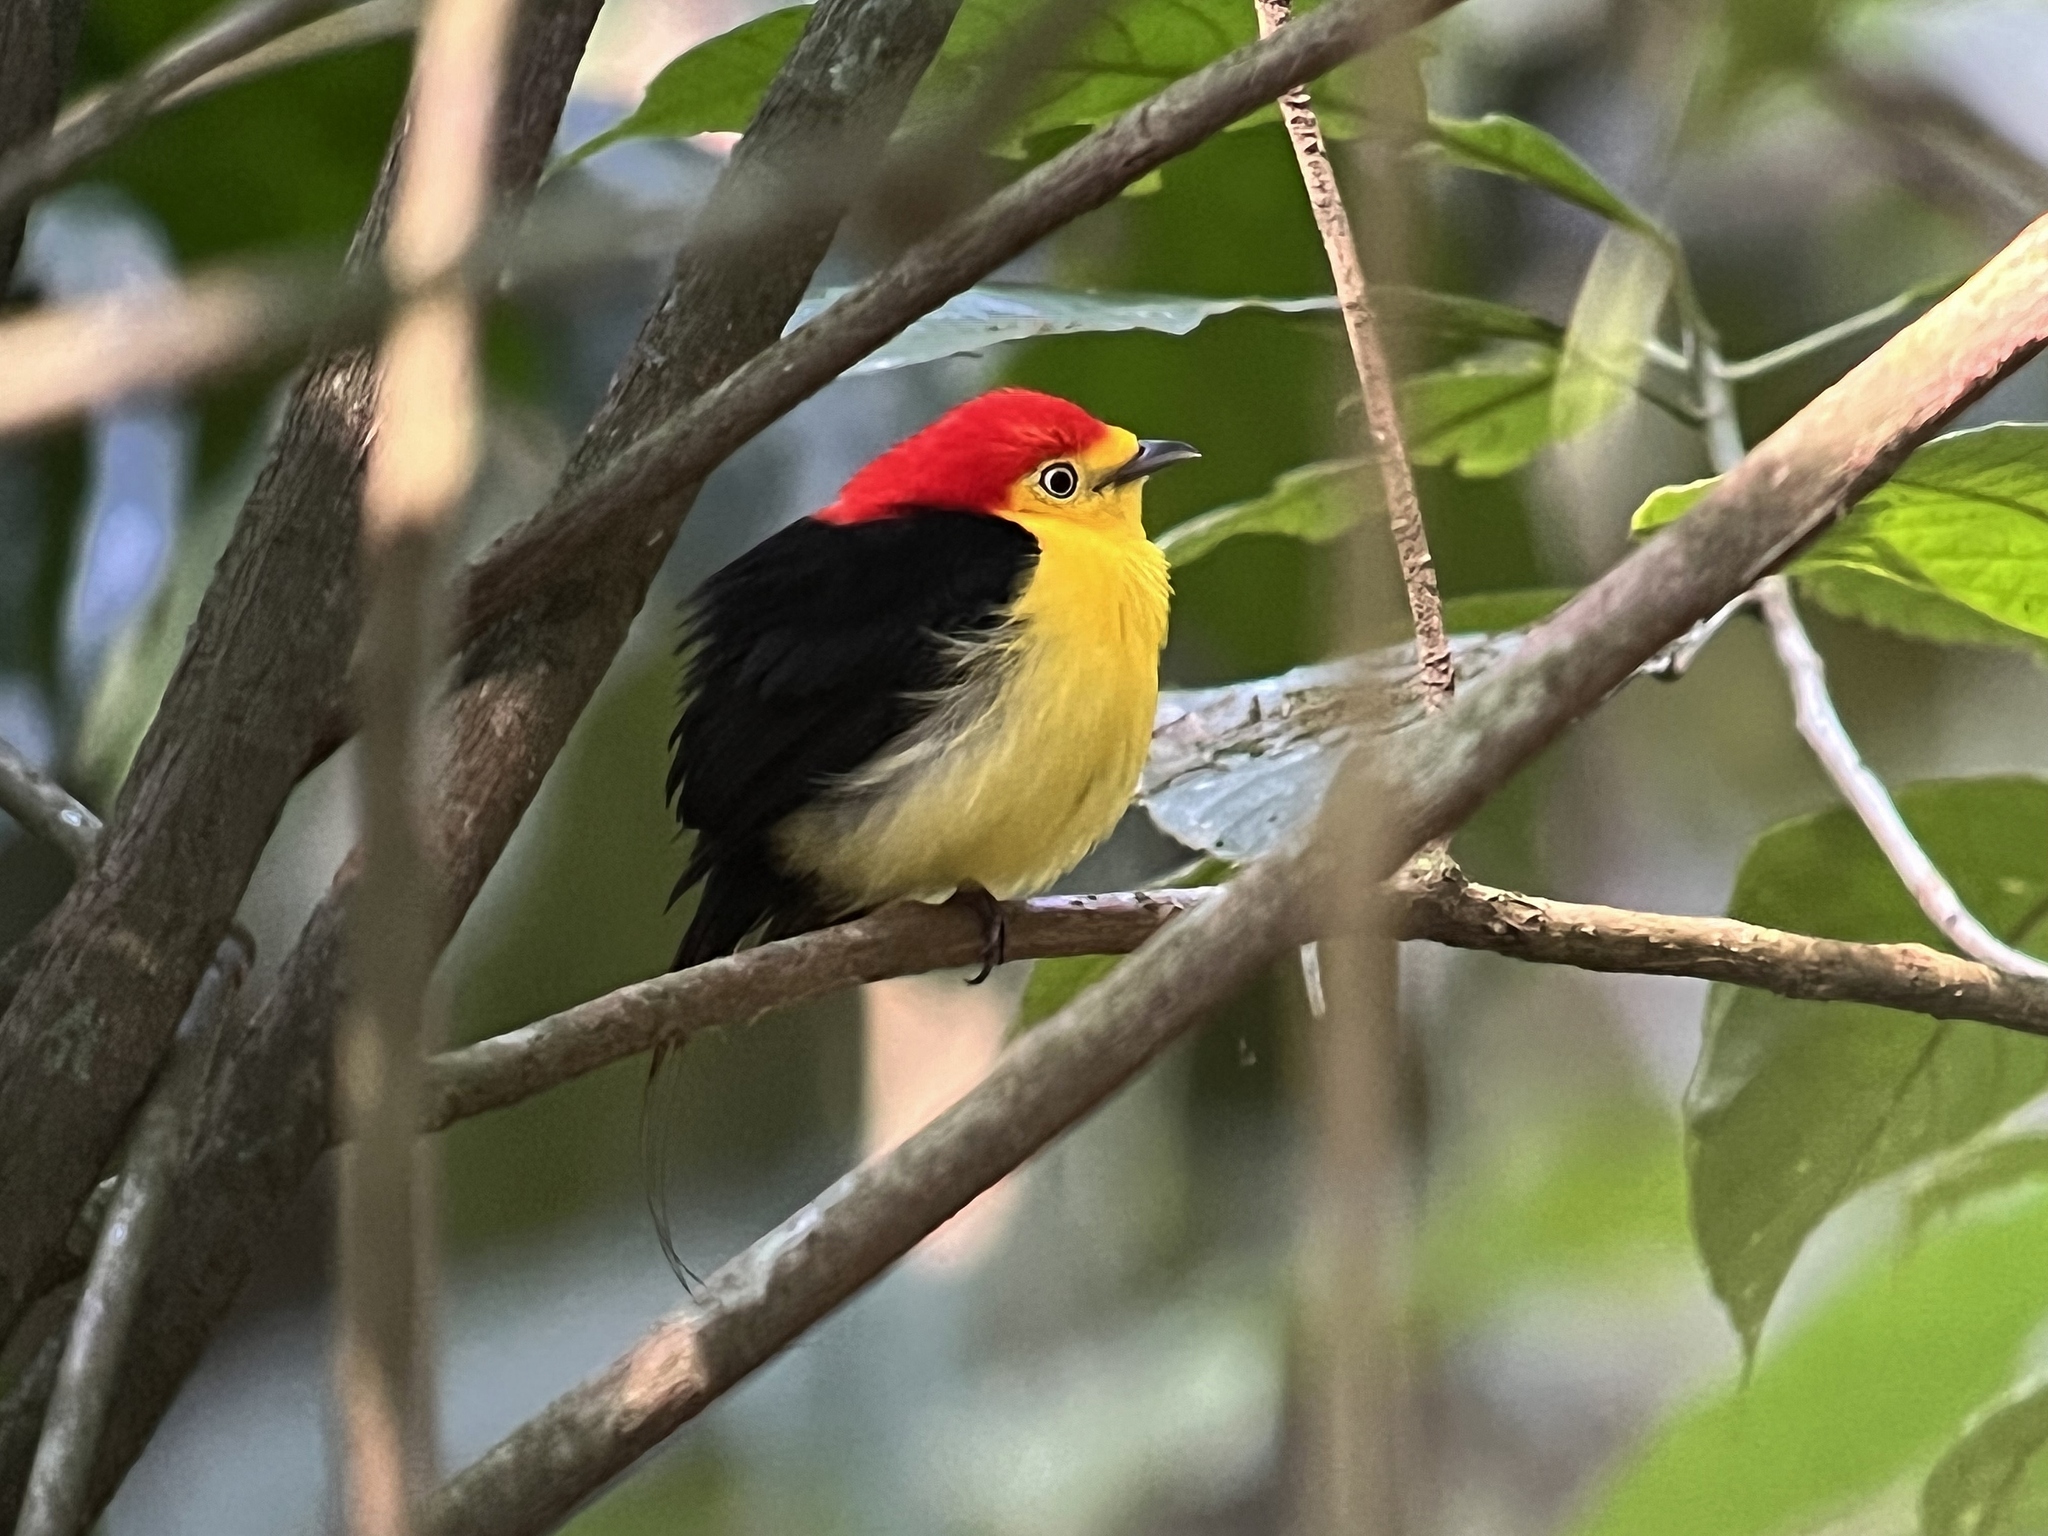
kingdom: Animalia
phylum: Chordata
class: Aves
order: Passeriformes
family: Pipridae
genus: Pipra
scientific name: Pipra filicauda
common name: Wire-tailed manakin
